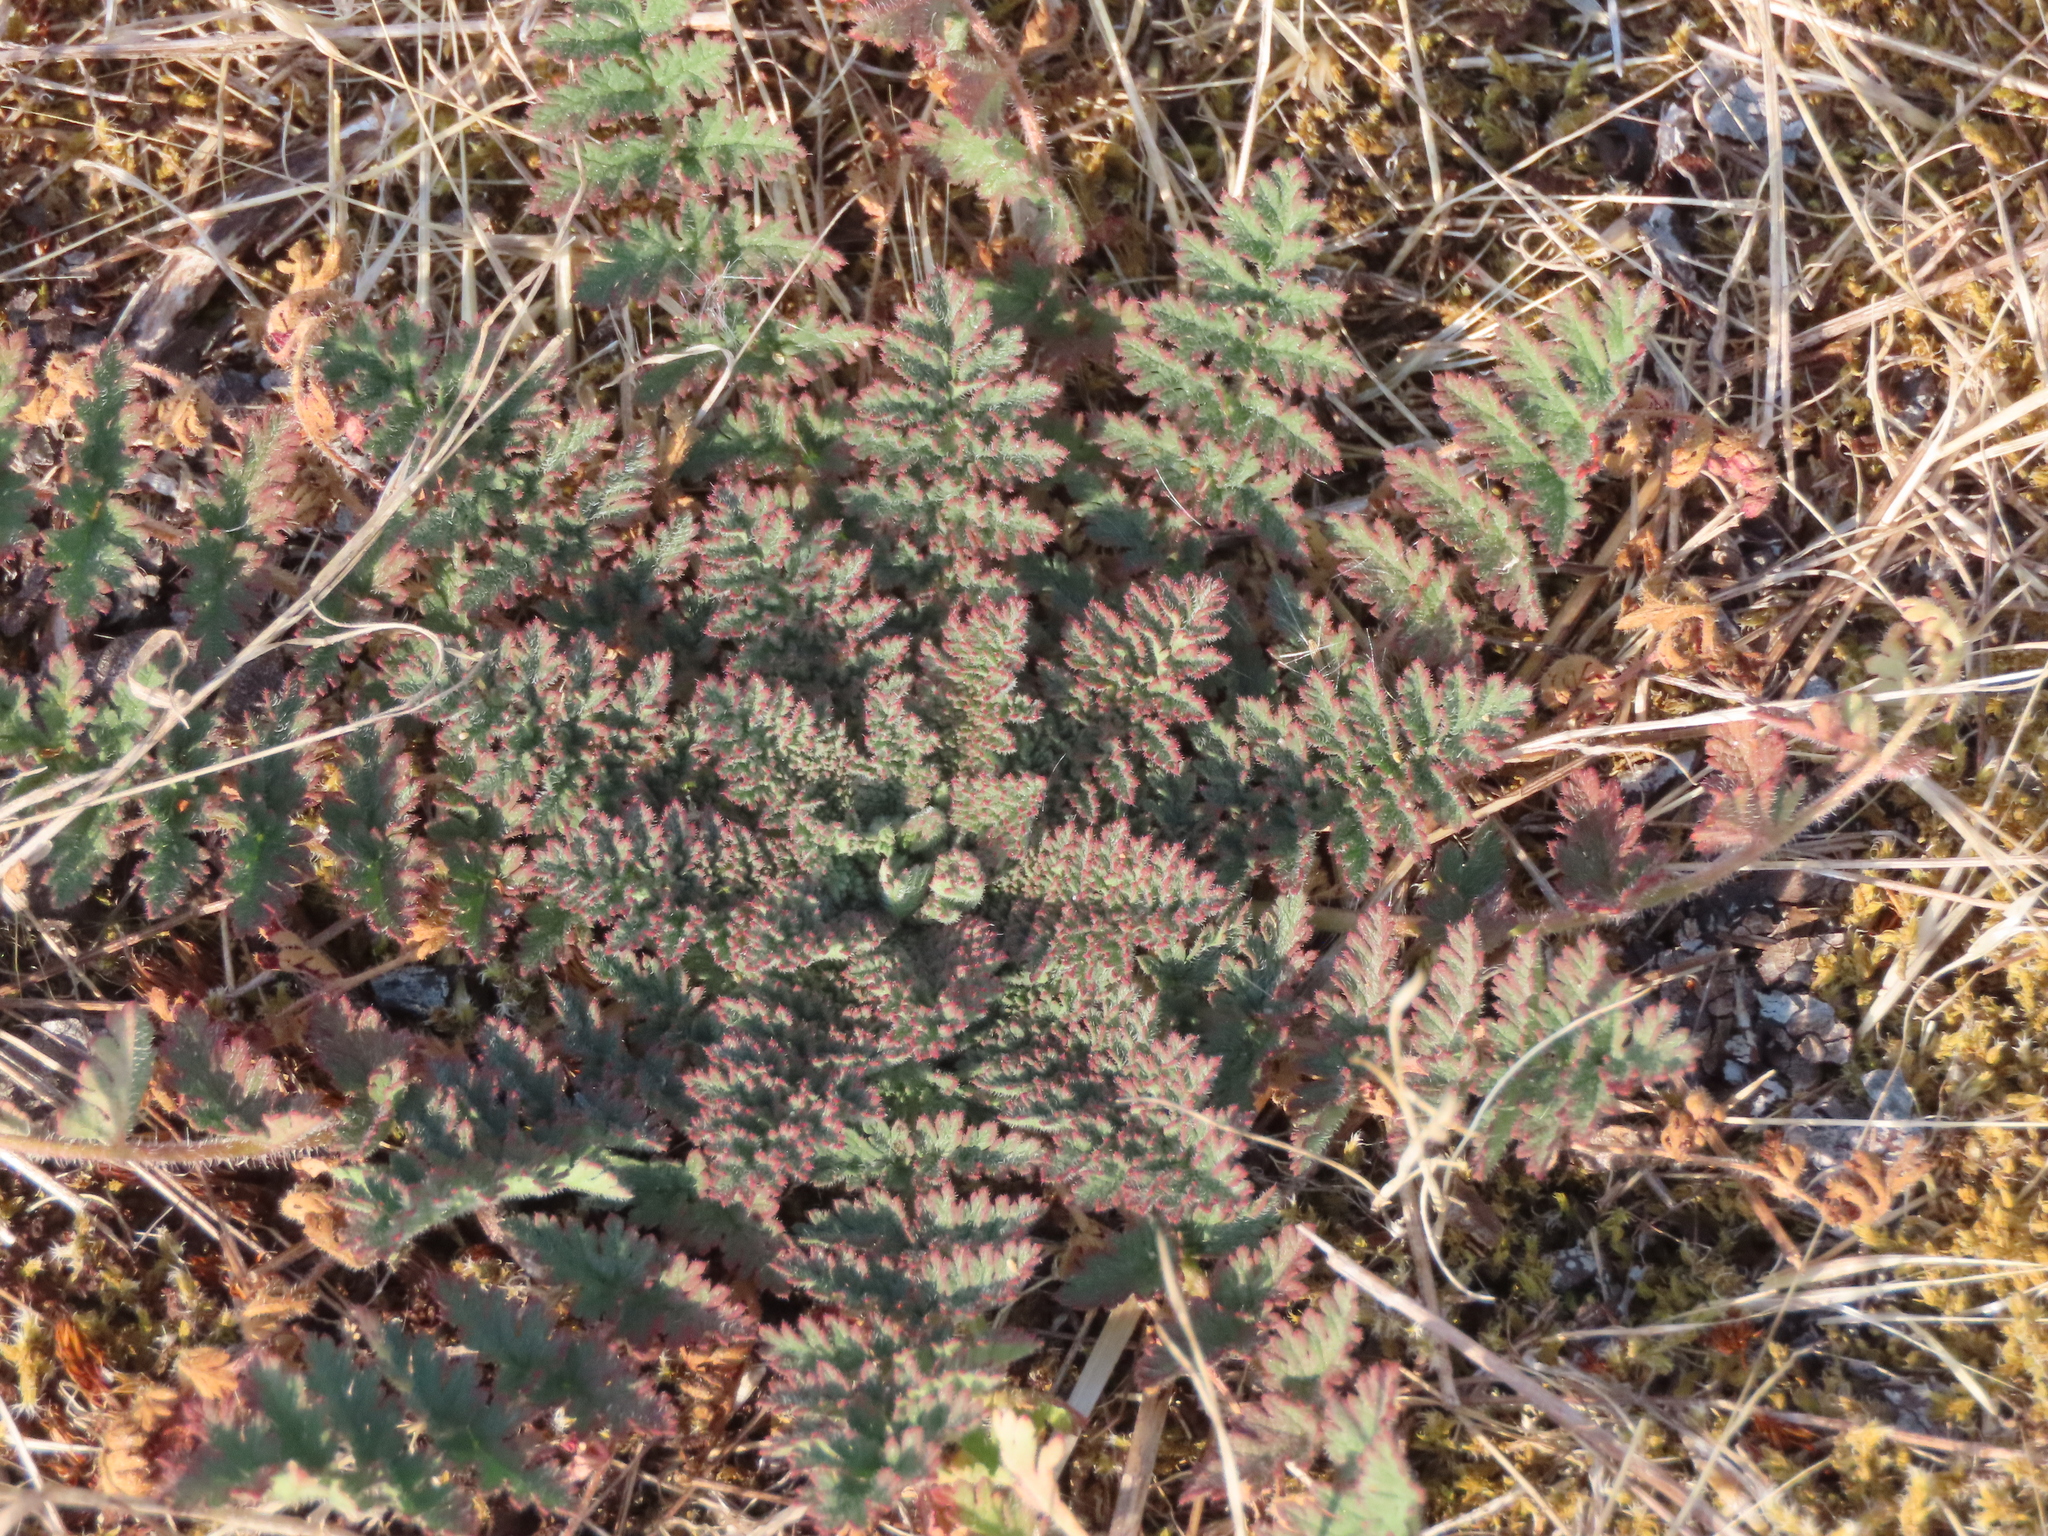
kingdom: Plantae
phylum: Tracheophyta
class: Magnoliopsida
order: Geraniales
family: Geraniaceae
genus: Erodium
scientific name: Erodium cicutarium
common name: Common stork's-bill
